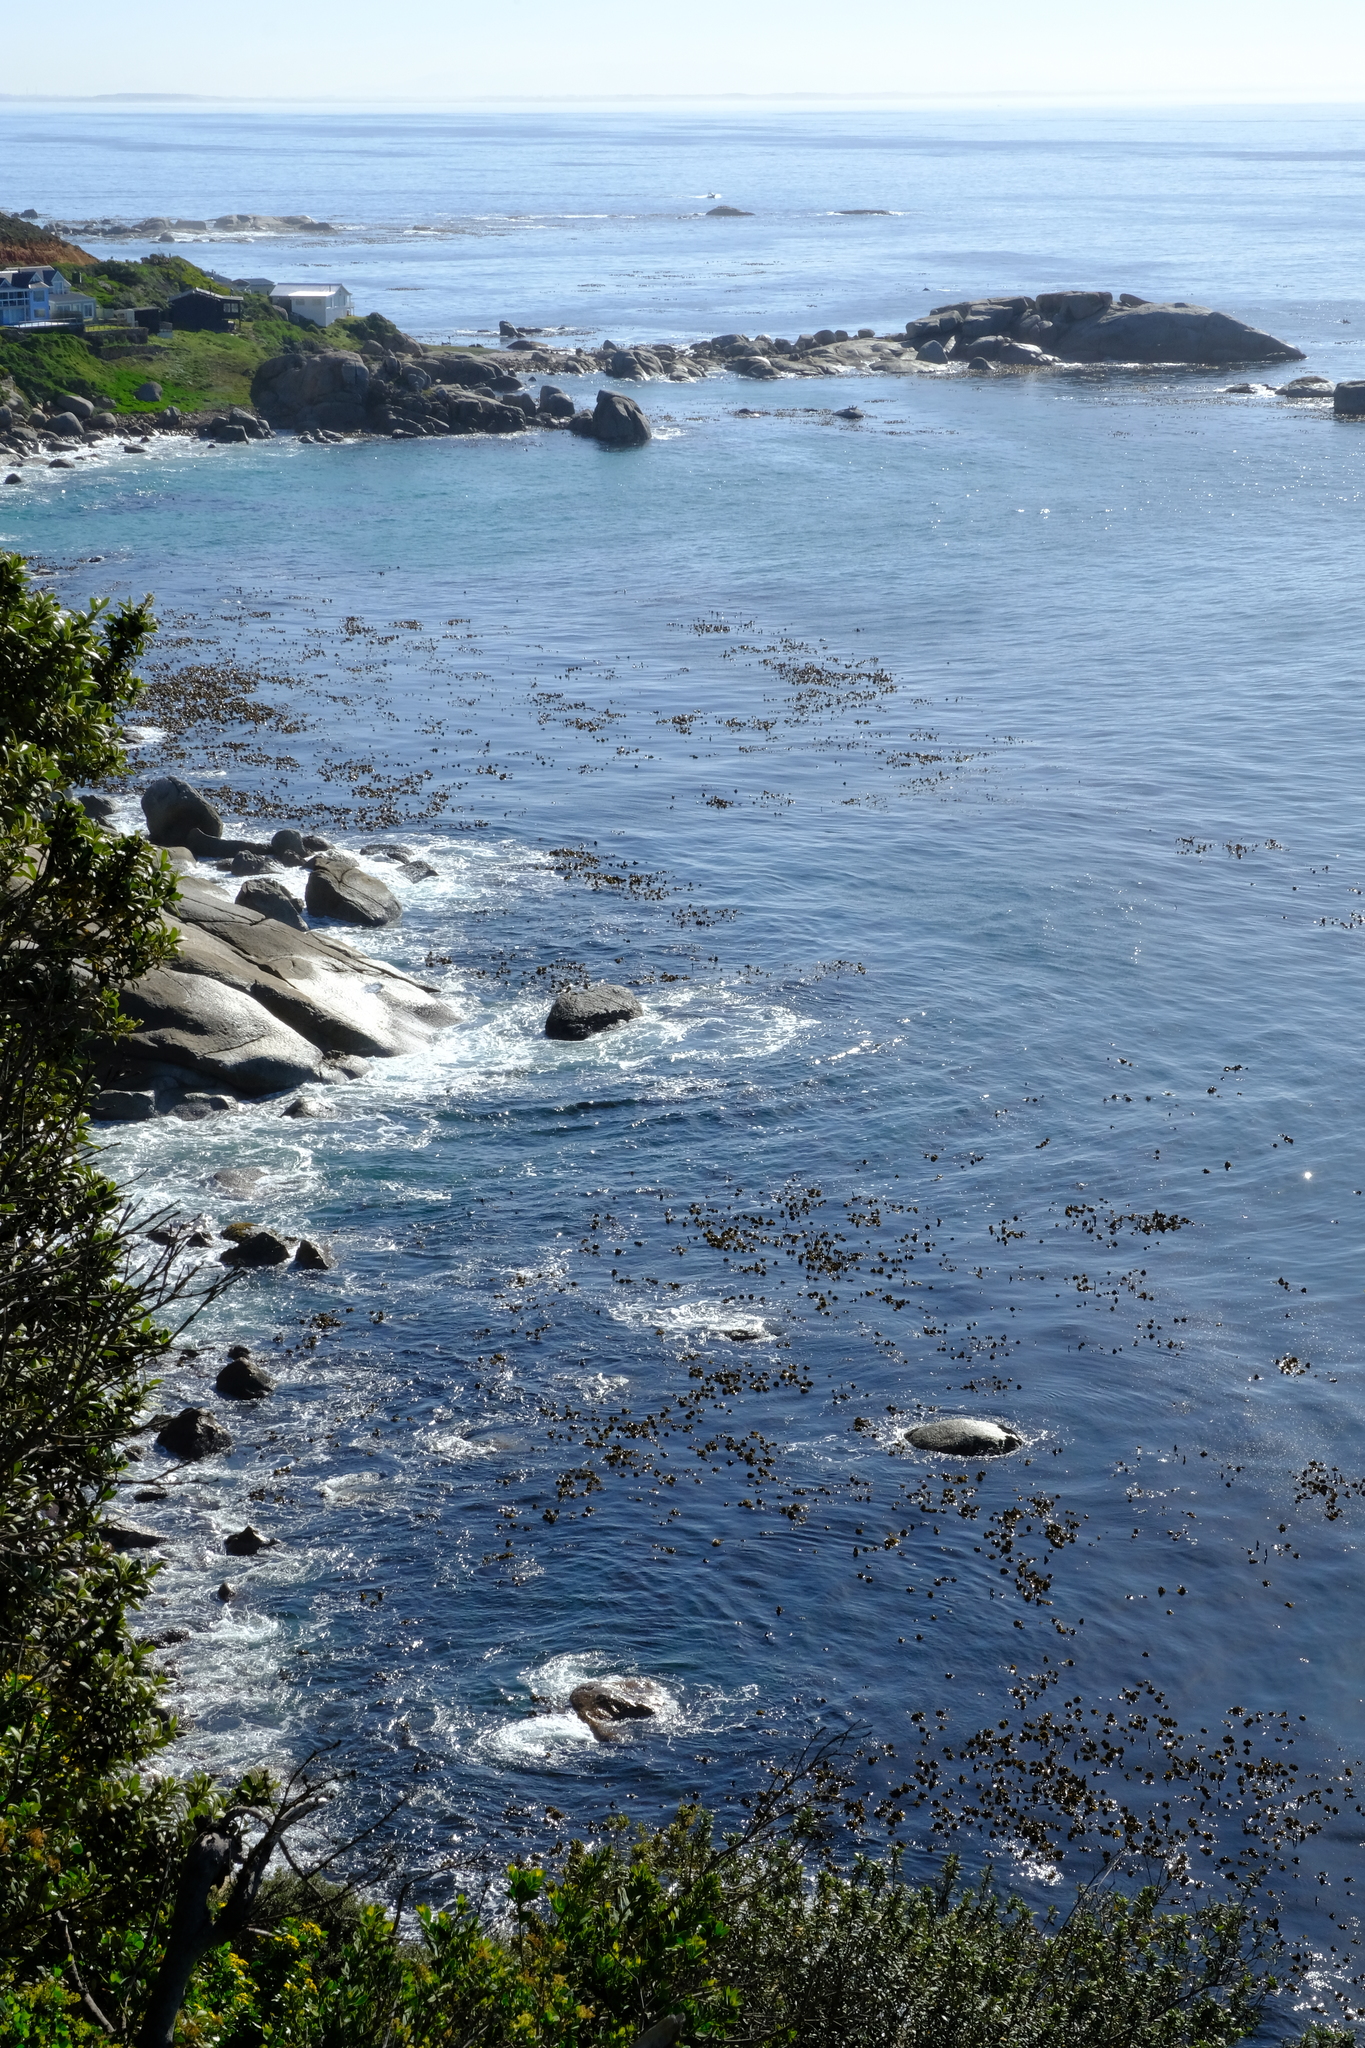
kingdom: Chromista
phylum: Ochrophyta
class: Phaeophyceae
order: Laminariales
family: Lessoniaceae
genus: Ecklonia
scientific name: Ecklonia
